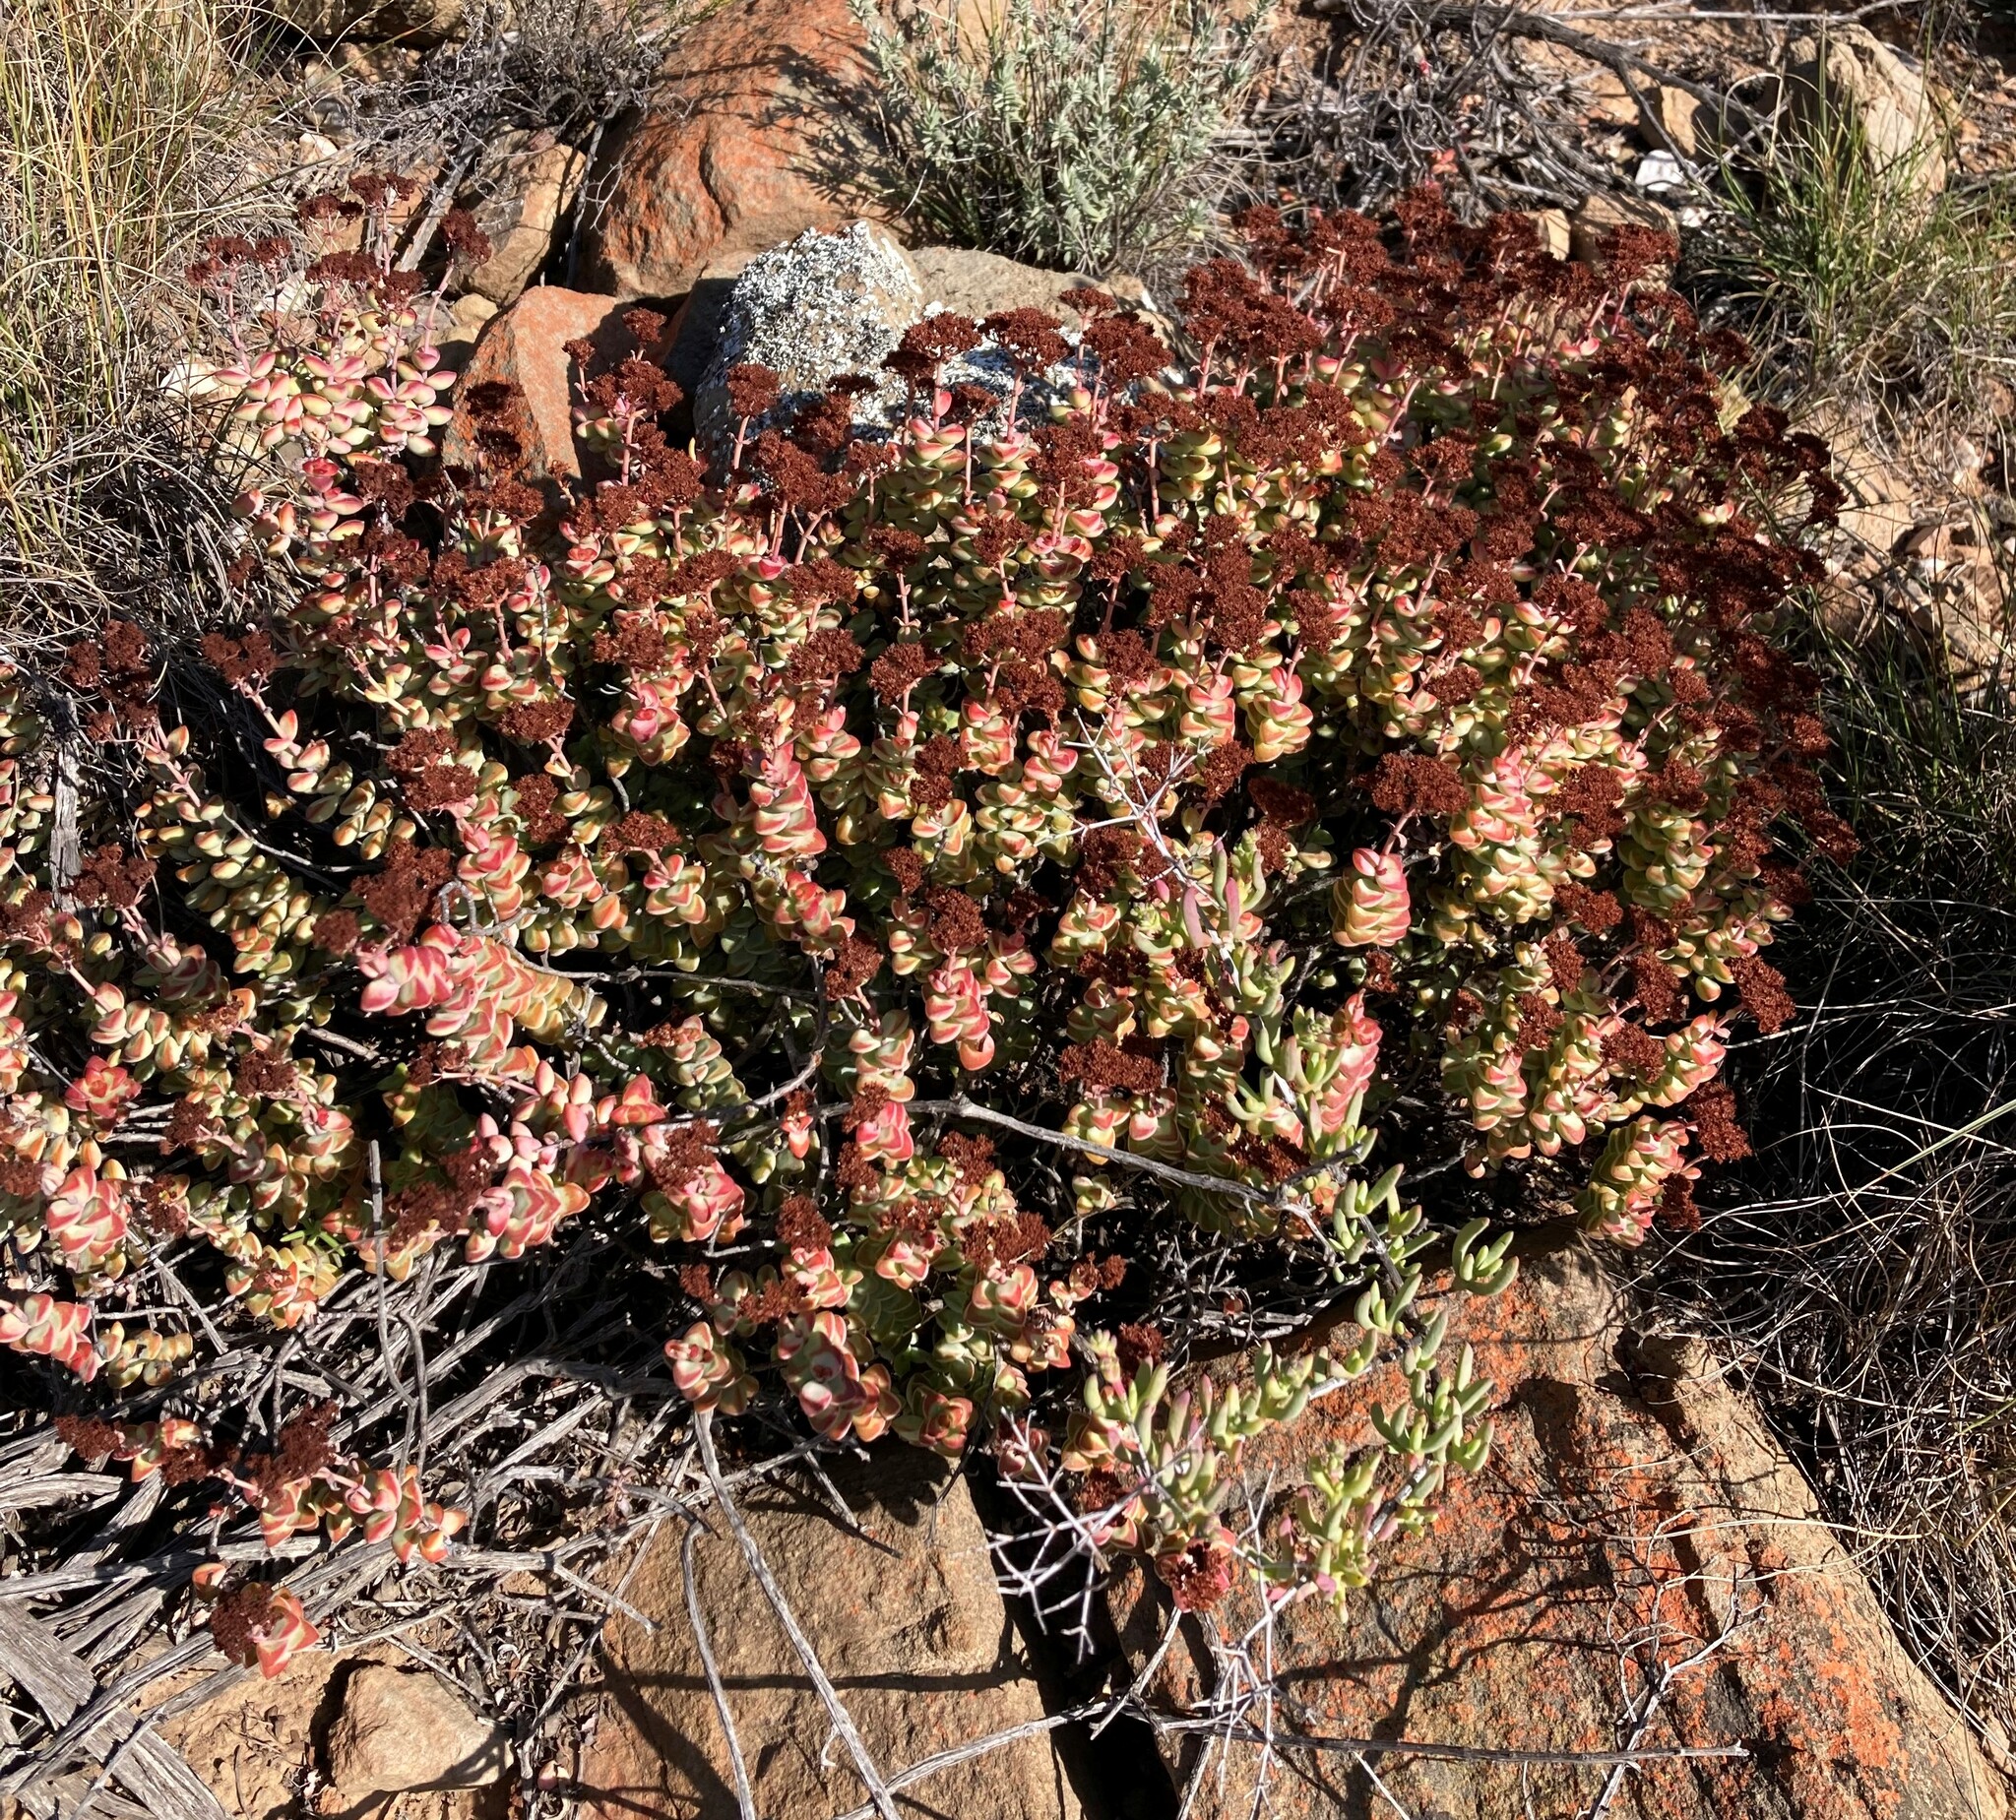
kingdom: Plantae
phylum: Tracheophyta
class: Magnoliopsida
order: Saxifragales
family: Crassulaceae
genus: Crassula
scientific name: Crassula rupestris
